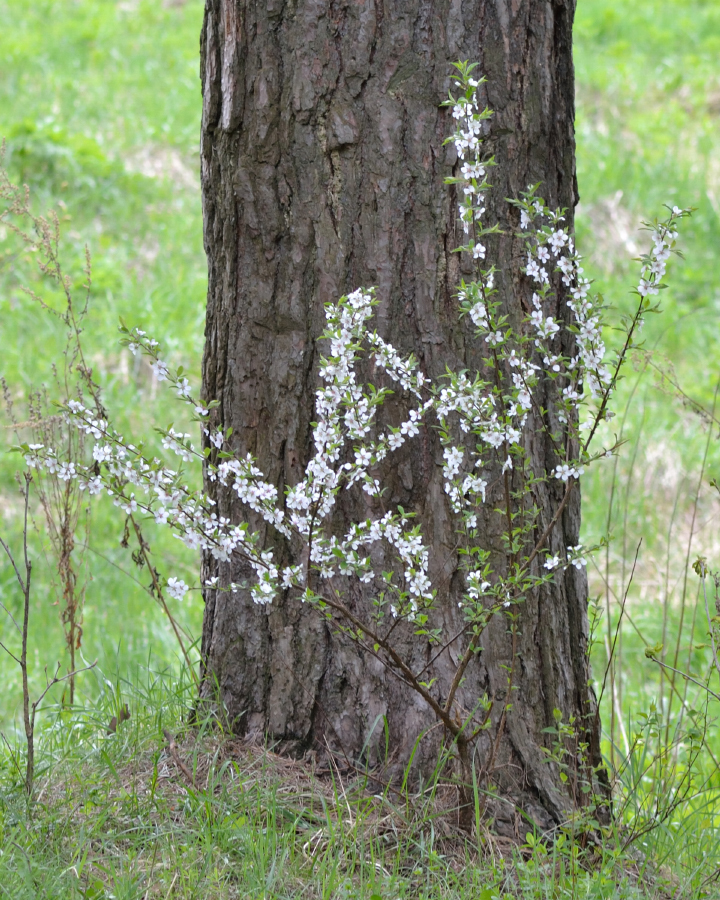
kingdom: Plantae
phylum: Tracheophyta
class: Magnoliopsida
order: Rosales
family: Rosaceae
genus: Prunus
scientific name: Prunus tomentosa
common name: Nanking cherry
